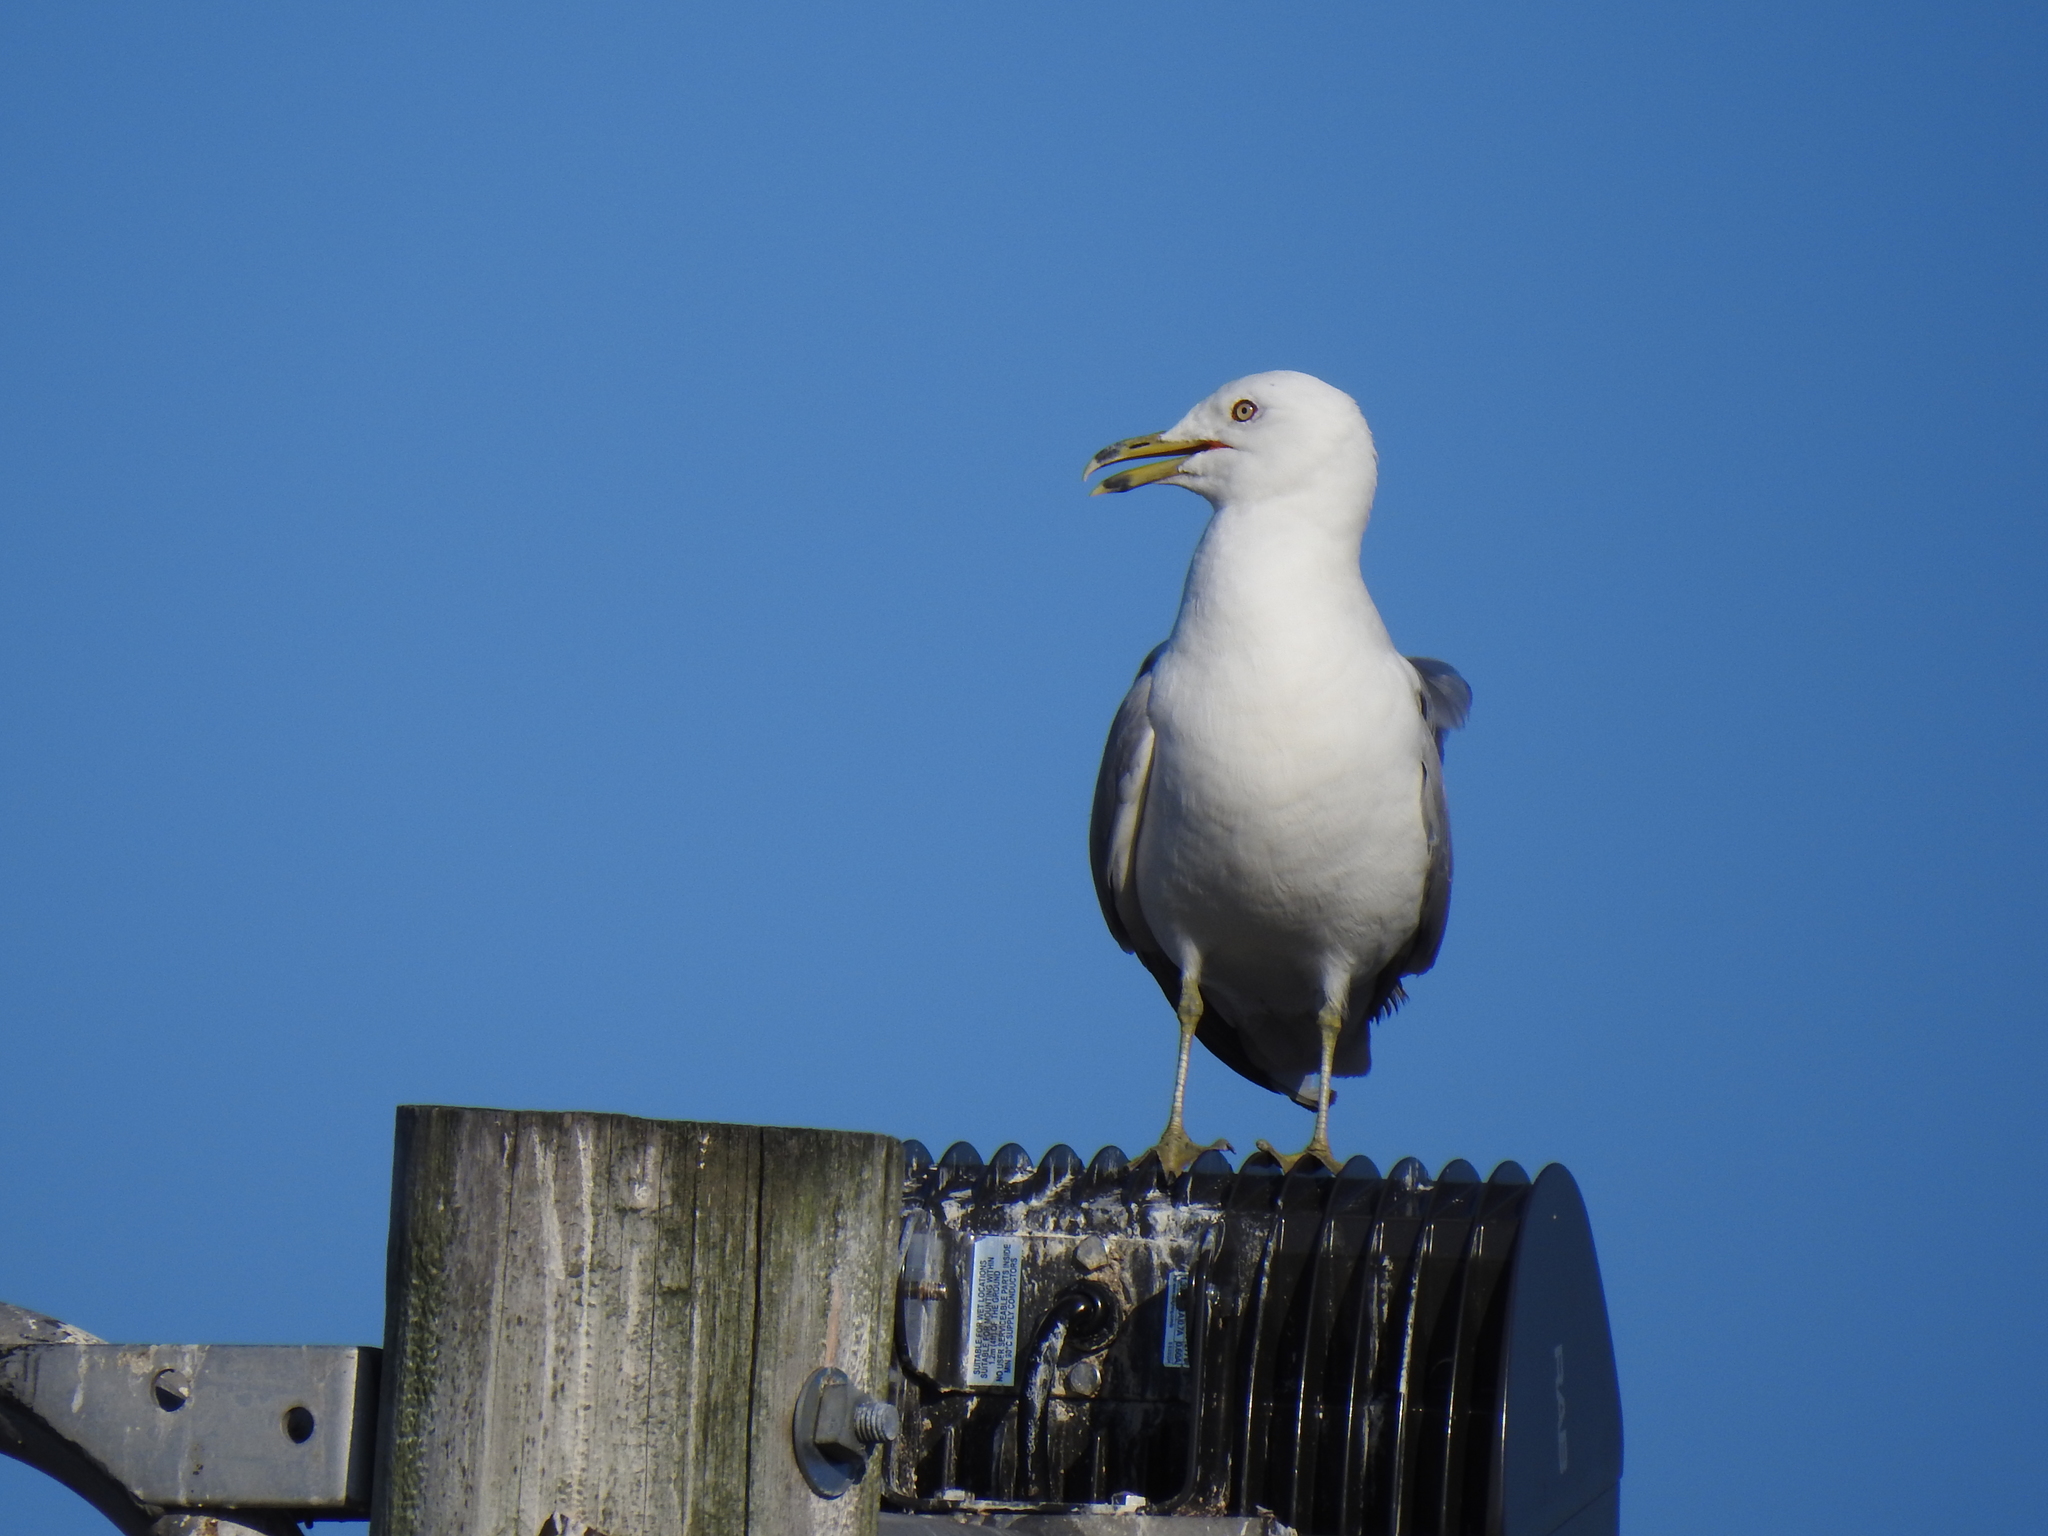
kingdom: Animalia
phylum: Chordata
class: Aves
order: Charadriiformes
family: Laridae
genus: Larus
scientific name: Larus delawarensis
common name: Ring-billed gull
